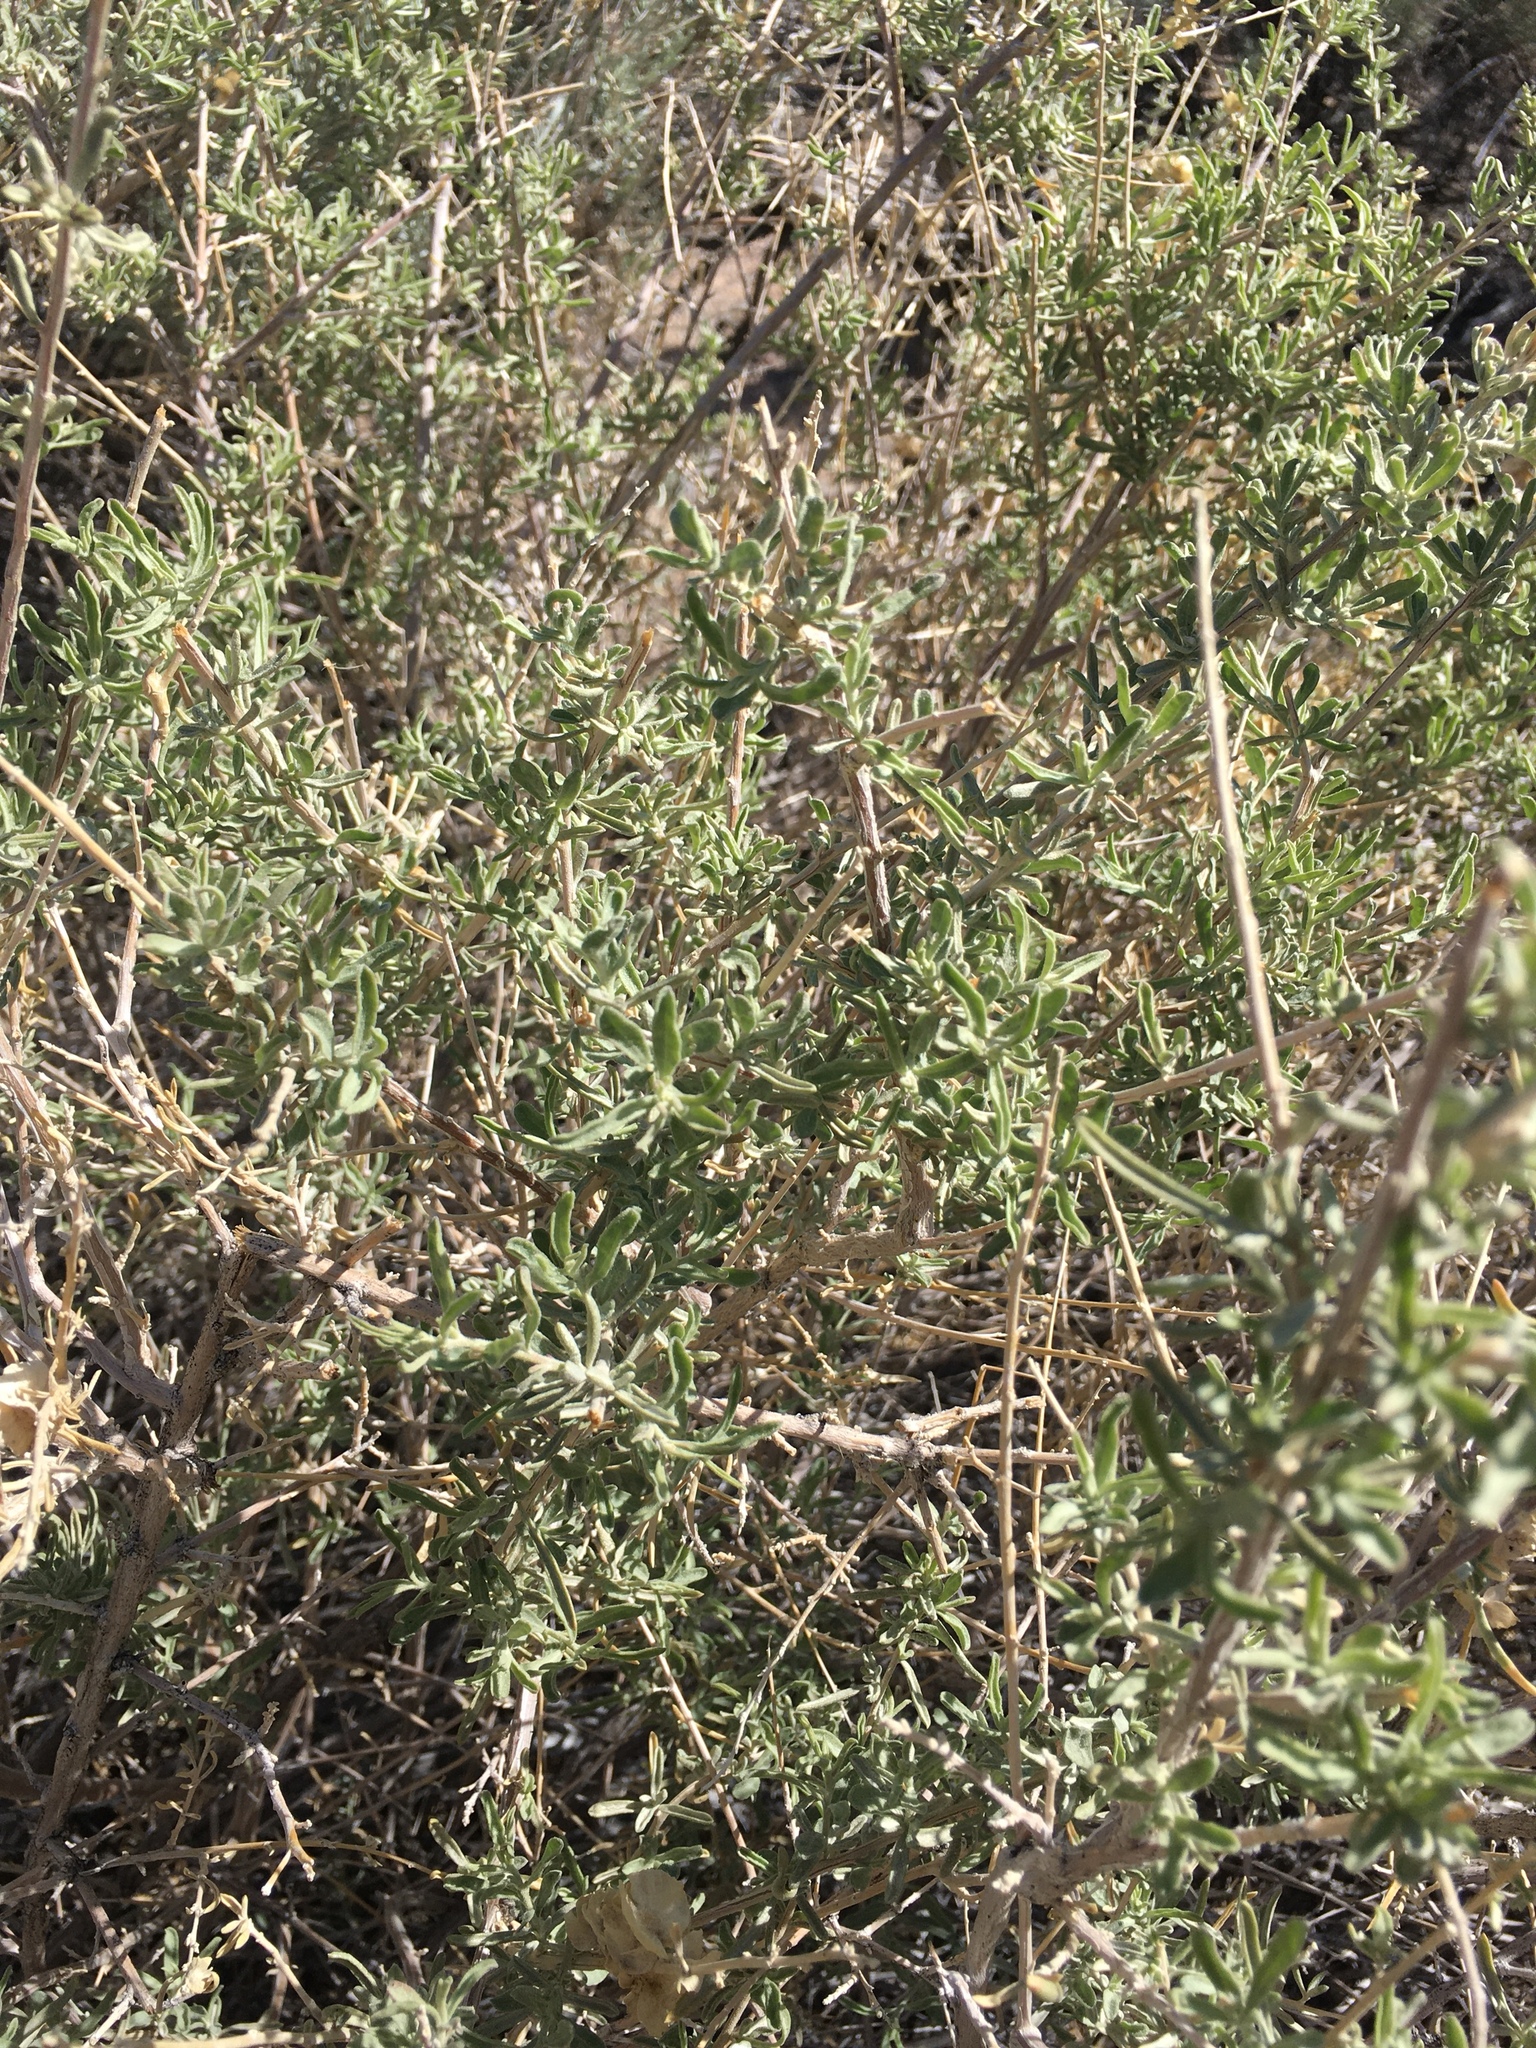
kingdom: Plantae
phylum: Tracheophyta
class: Magnoliopsida
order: Caryophyllales
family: Amaranthaceae
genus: Atriplex
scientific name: Atriplex canescens
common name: Four-wing saltbush
